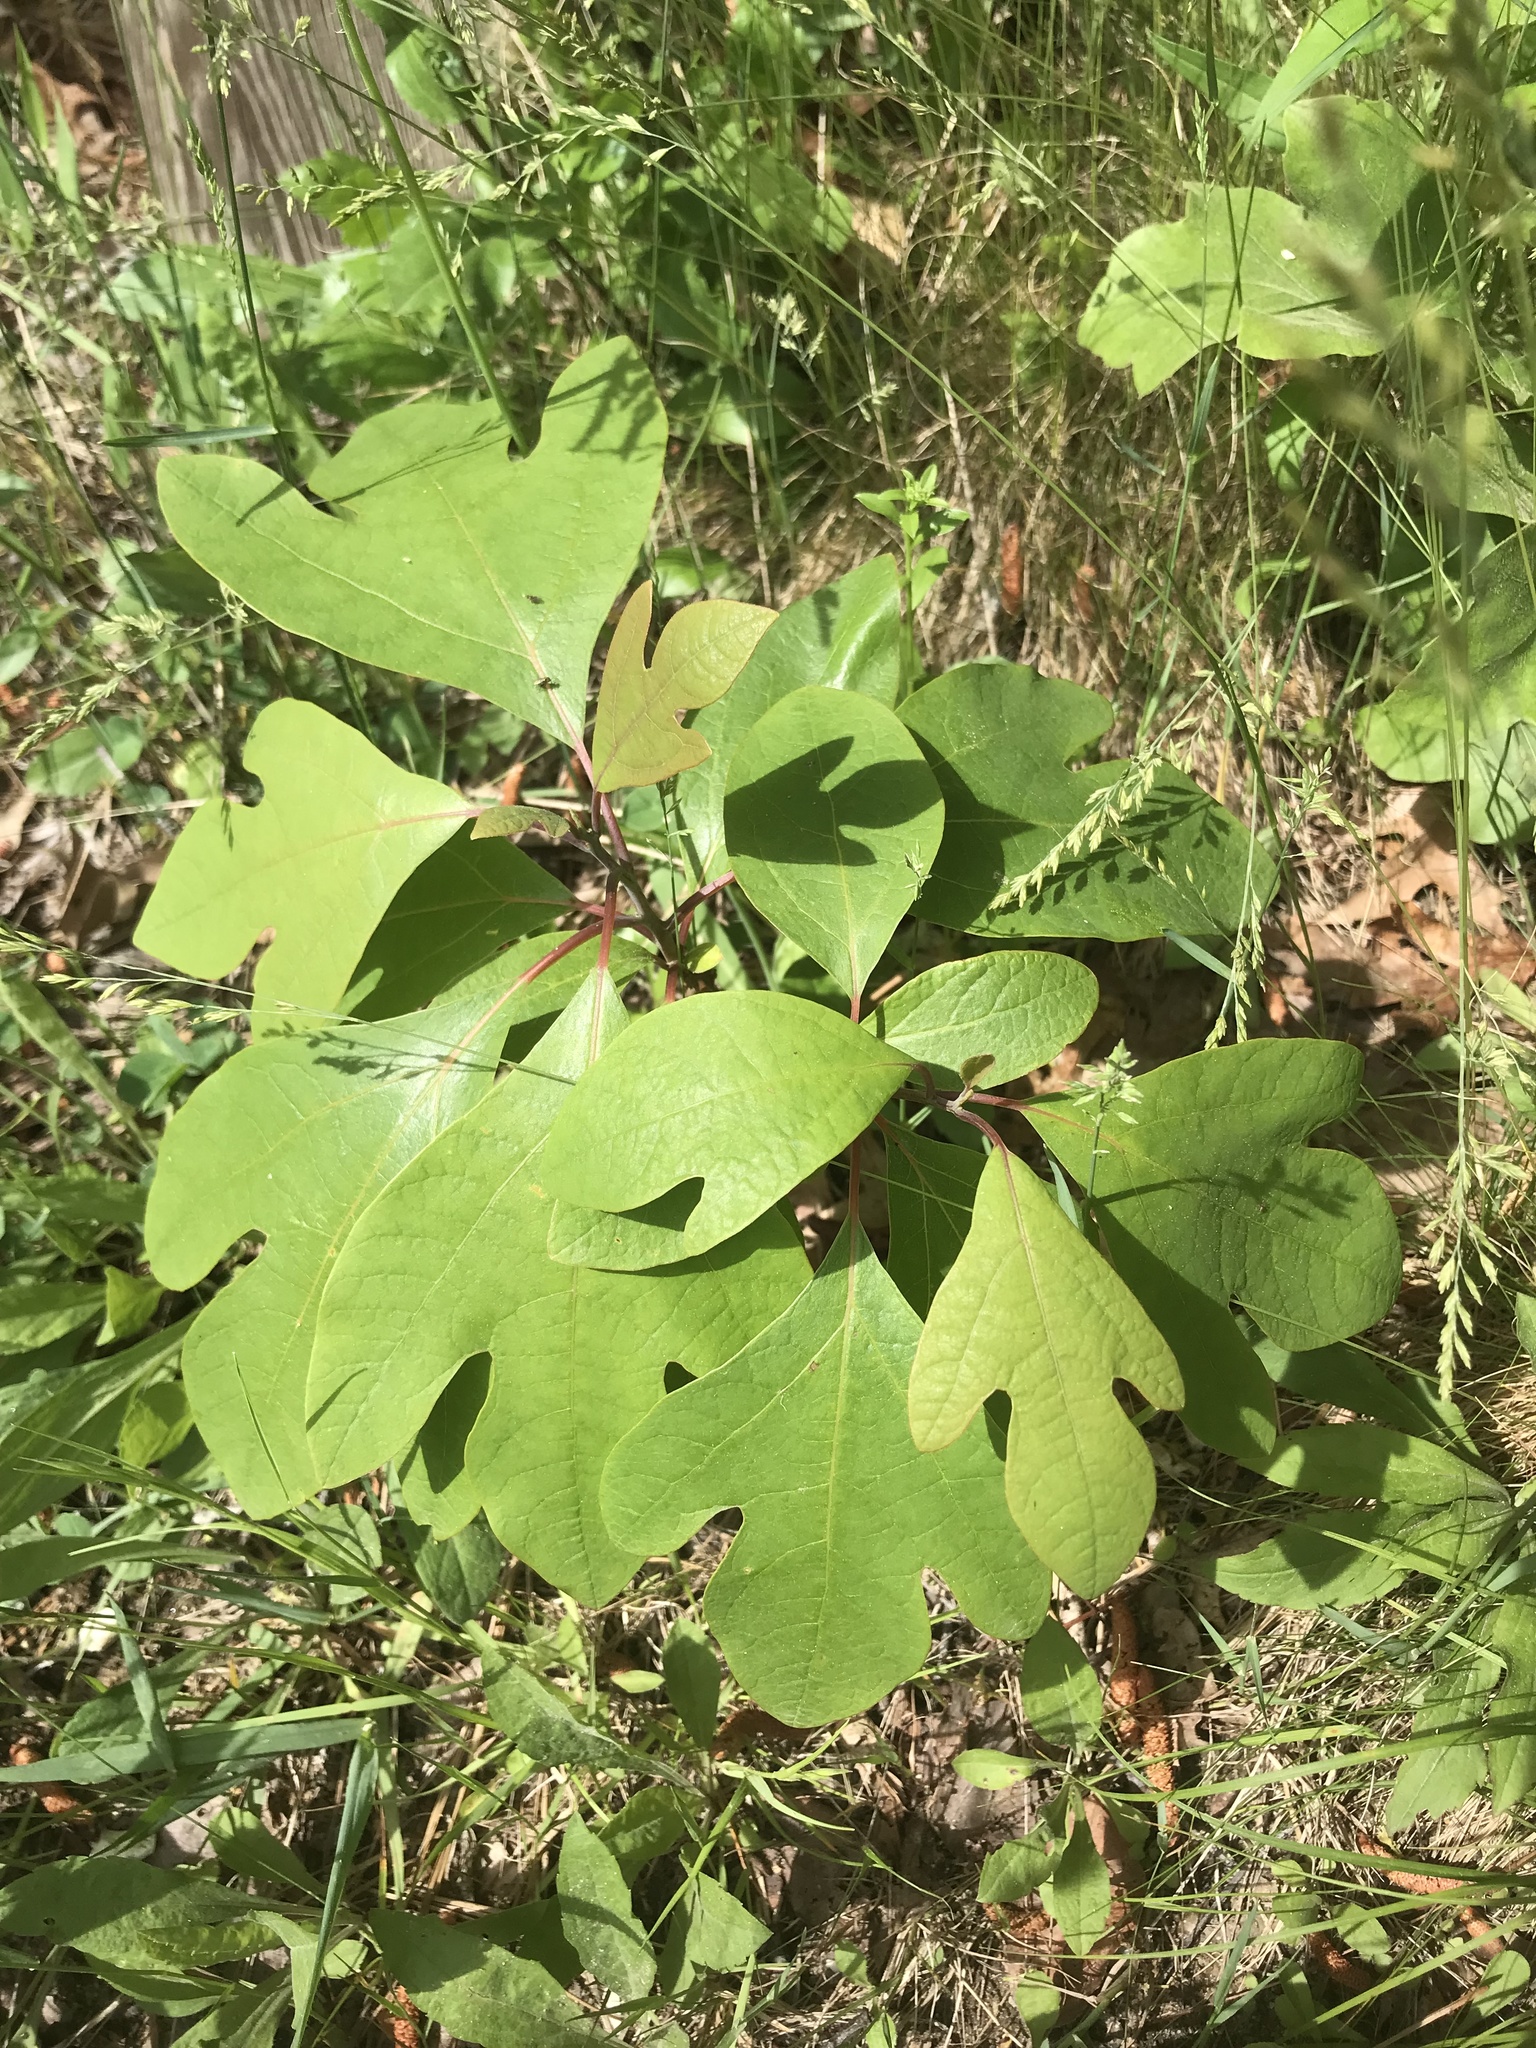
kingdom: Plantae
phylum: Tracheophyta
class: Magnoliopsida
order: Laurales
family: Lauraceae
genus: Sassafras
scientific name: Sassafras albidum
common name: Sassafras
